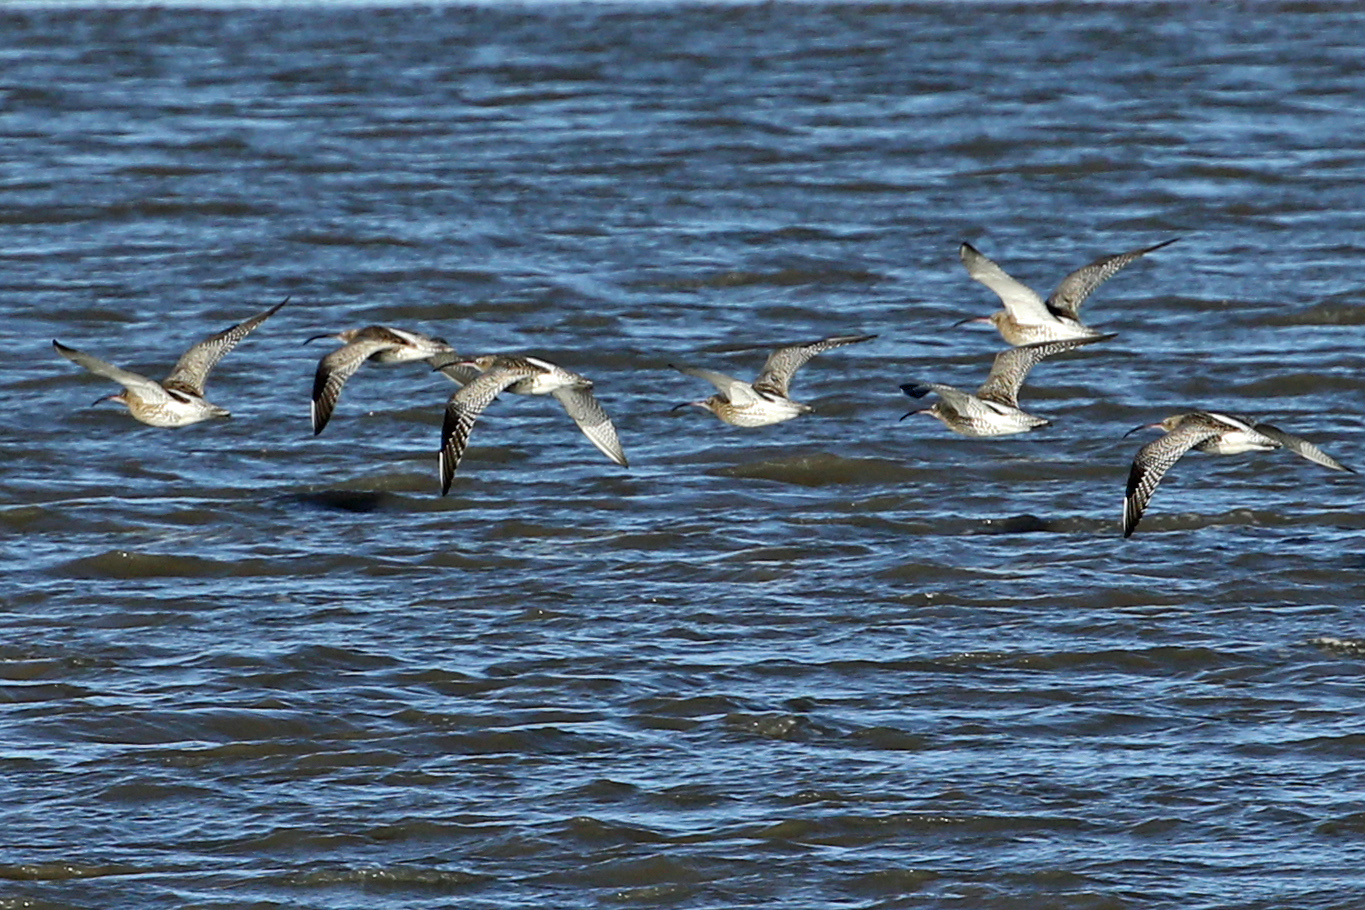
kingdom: Animalia
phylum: Chordata
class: Aves
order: Charadriiformes
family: Scolopacidae
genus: Numenius
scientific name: Numenius arquata
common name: Eurasian curlew
